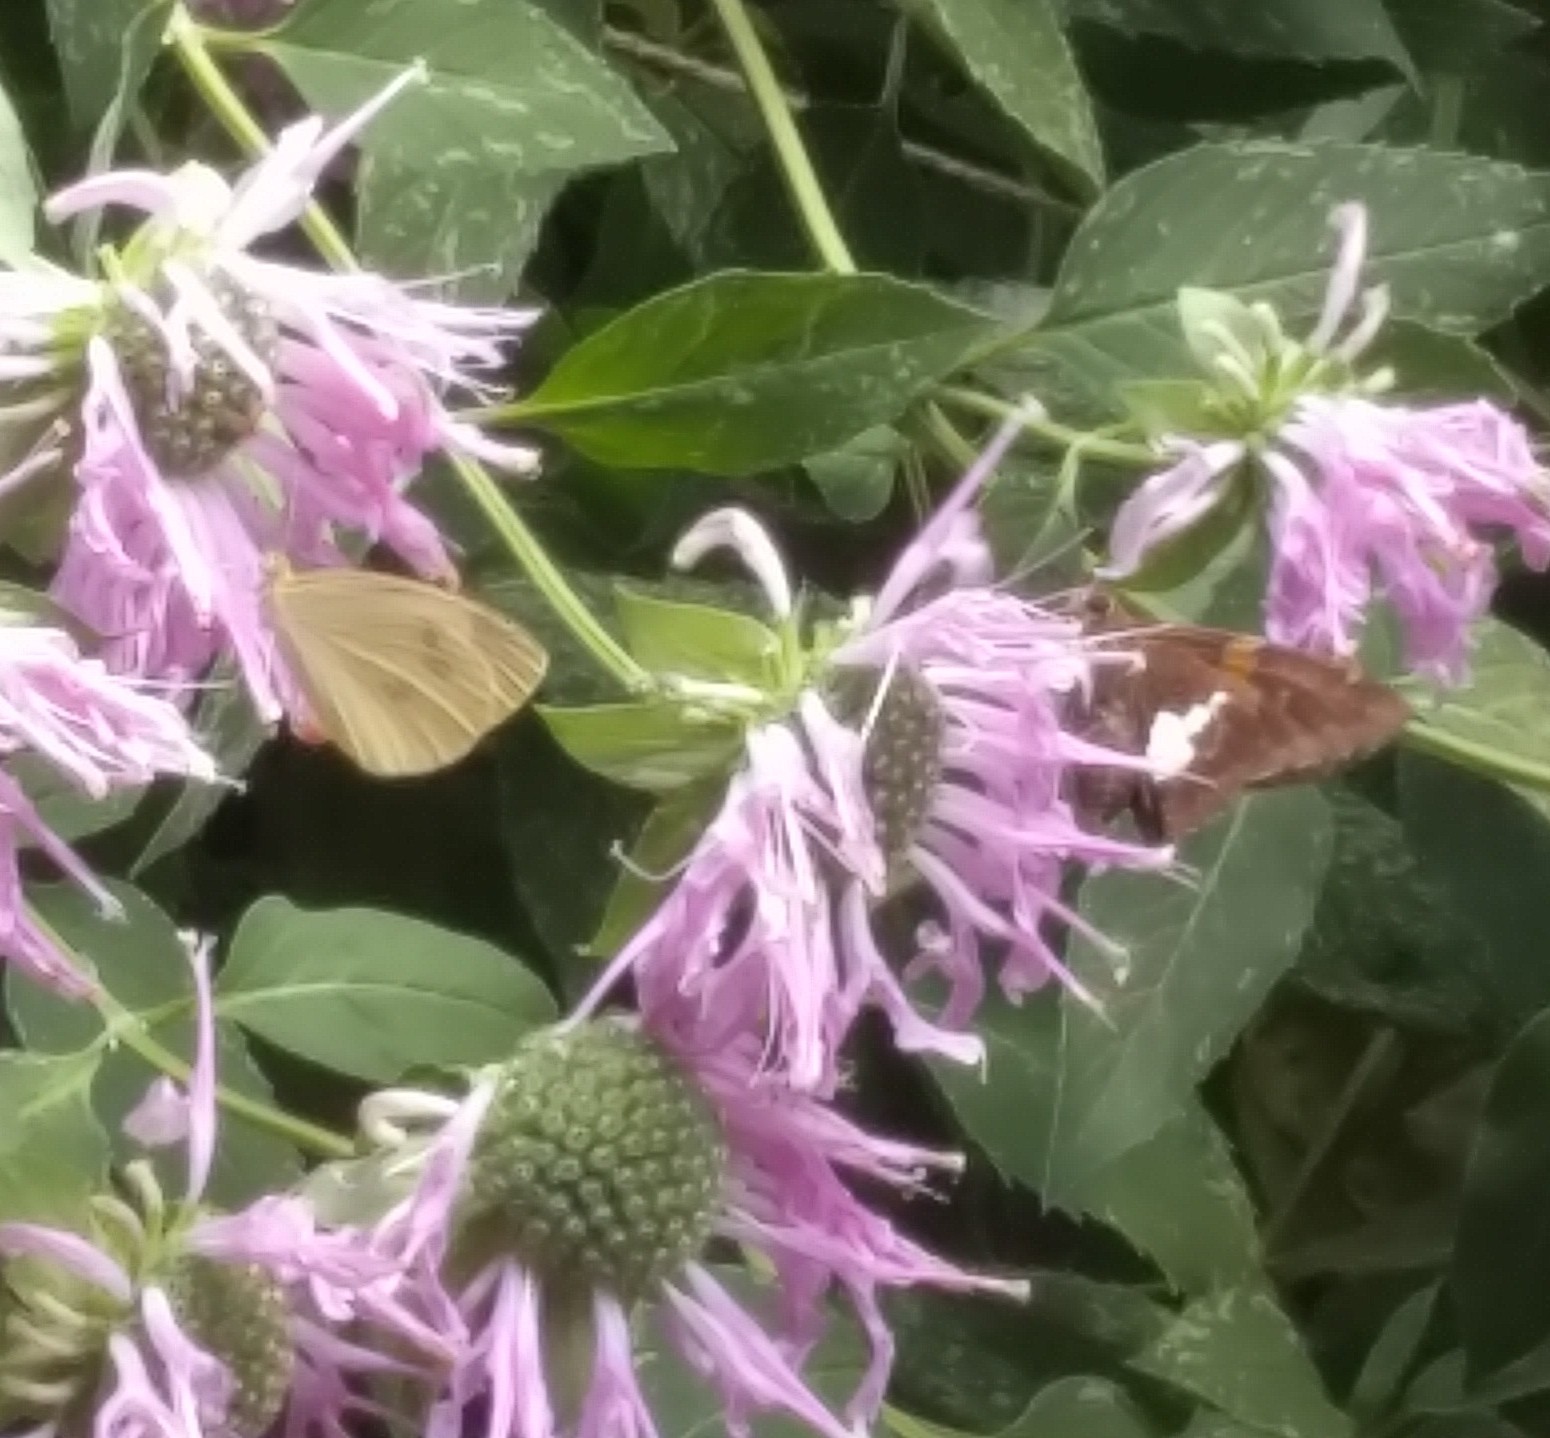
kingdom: Animalia
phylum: Arthropoda
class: Insecta
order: Lepidoptera
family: Pieridae
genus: Pieris
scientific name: Pieris rapae
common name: Small white
